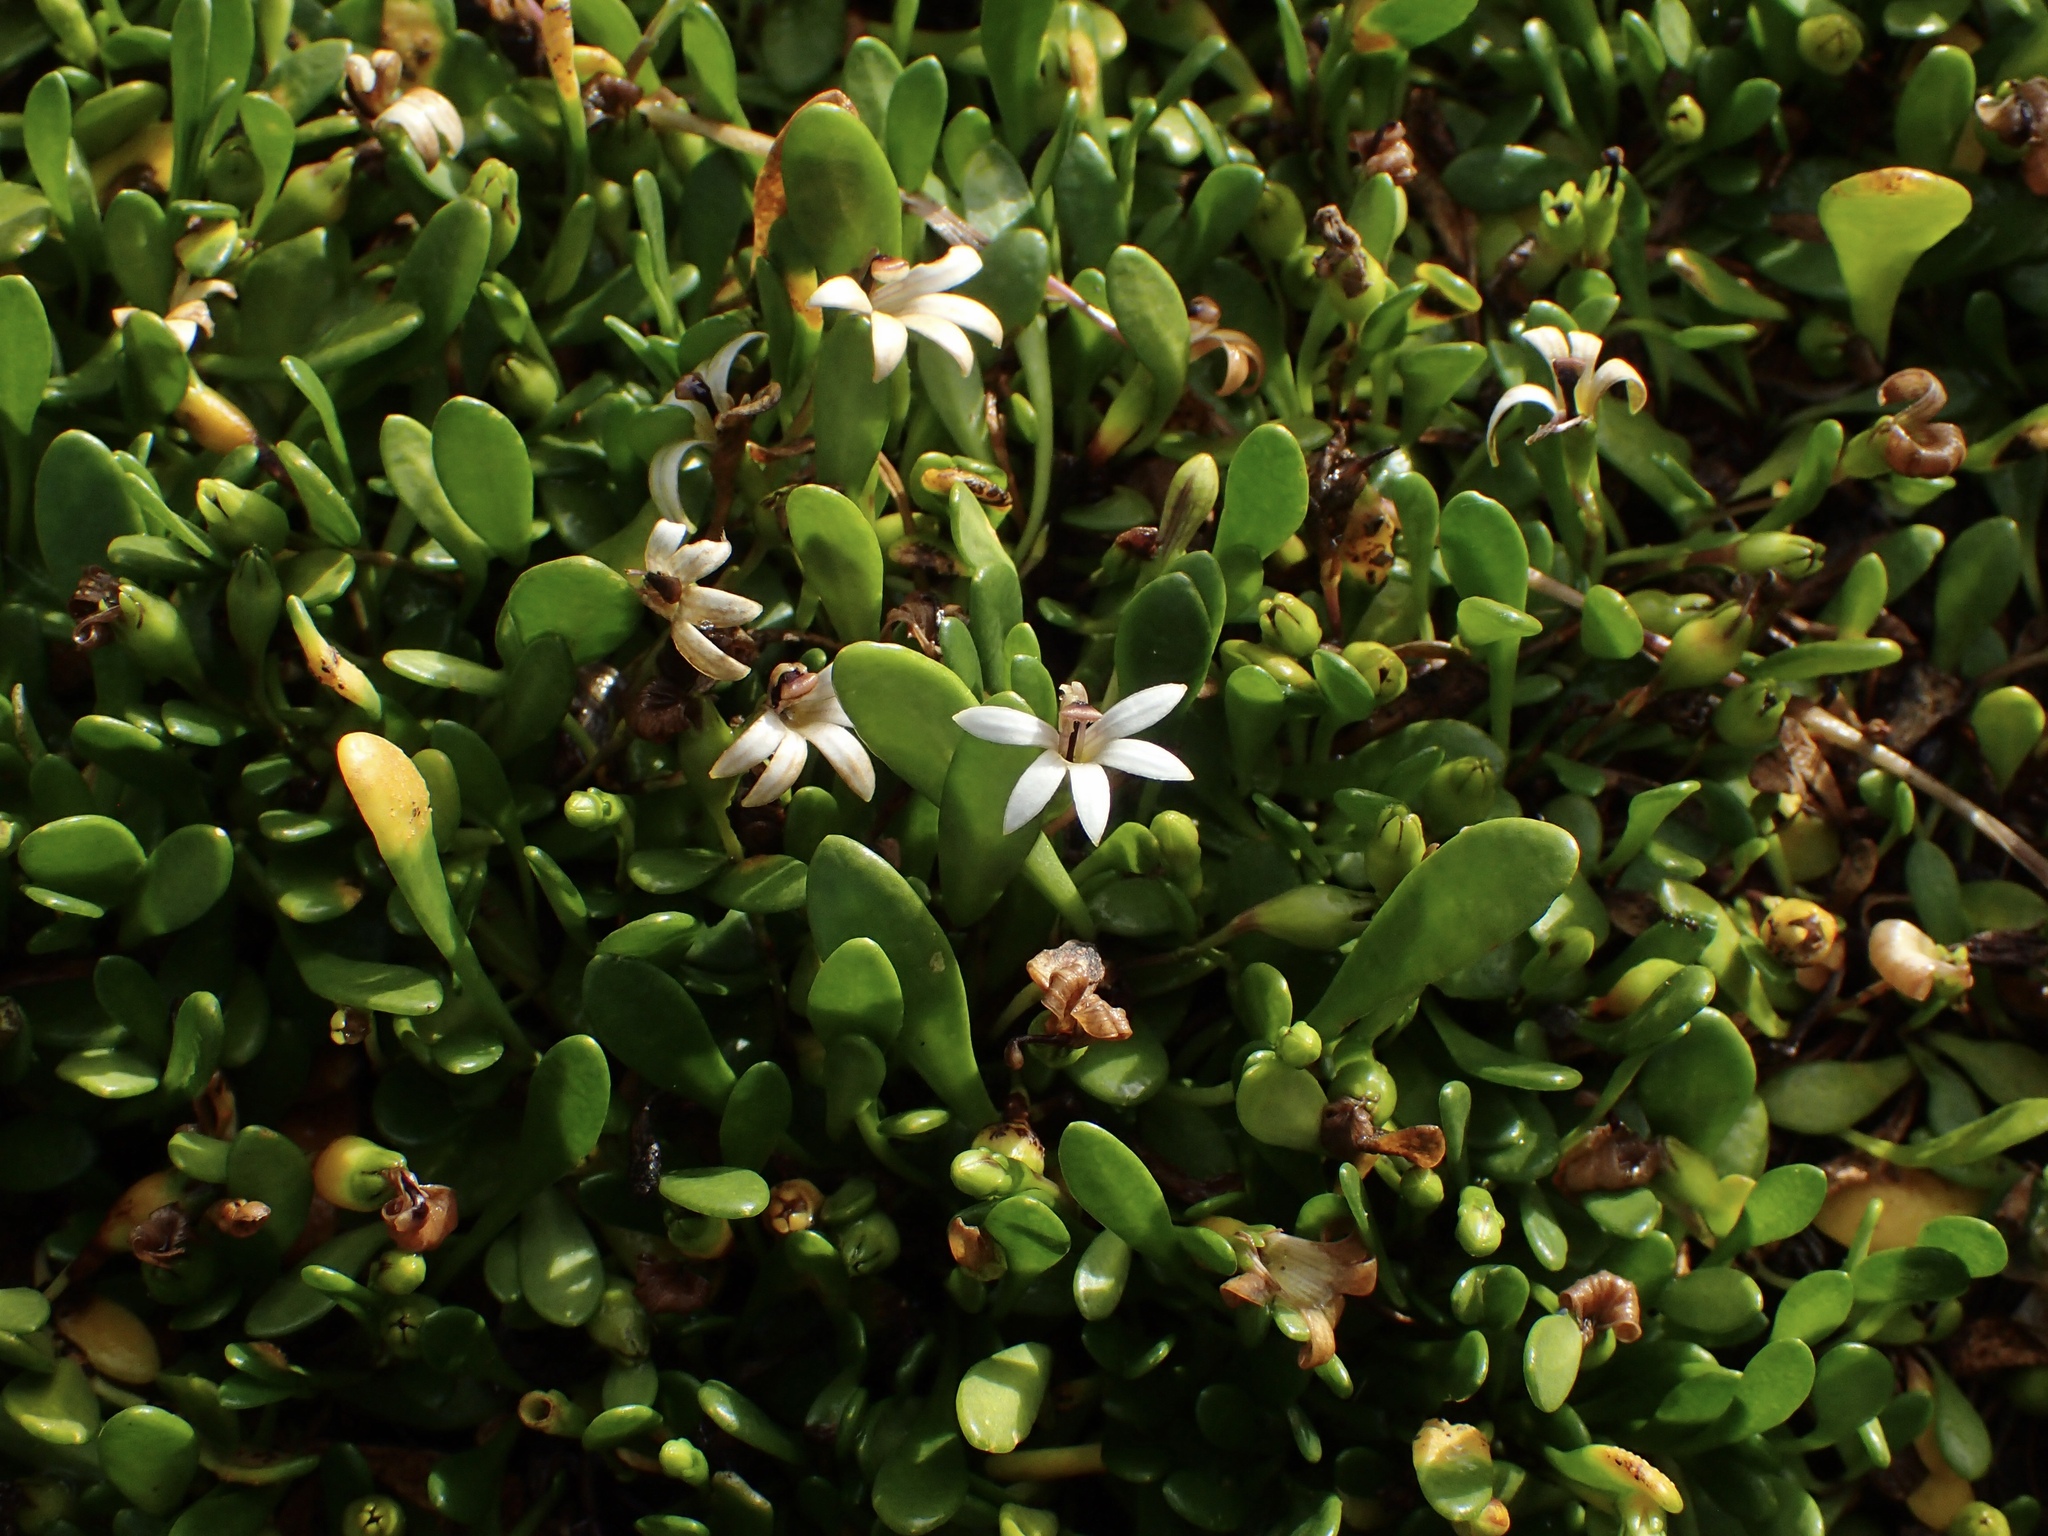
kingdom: Plantae
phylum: Tracheophyta
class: Magnoliopsida
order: Asterales
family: Goodeniaceae
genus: Goodenia
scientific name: Goodenia radicans
